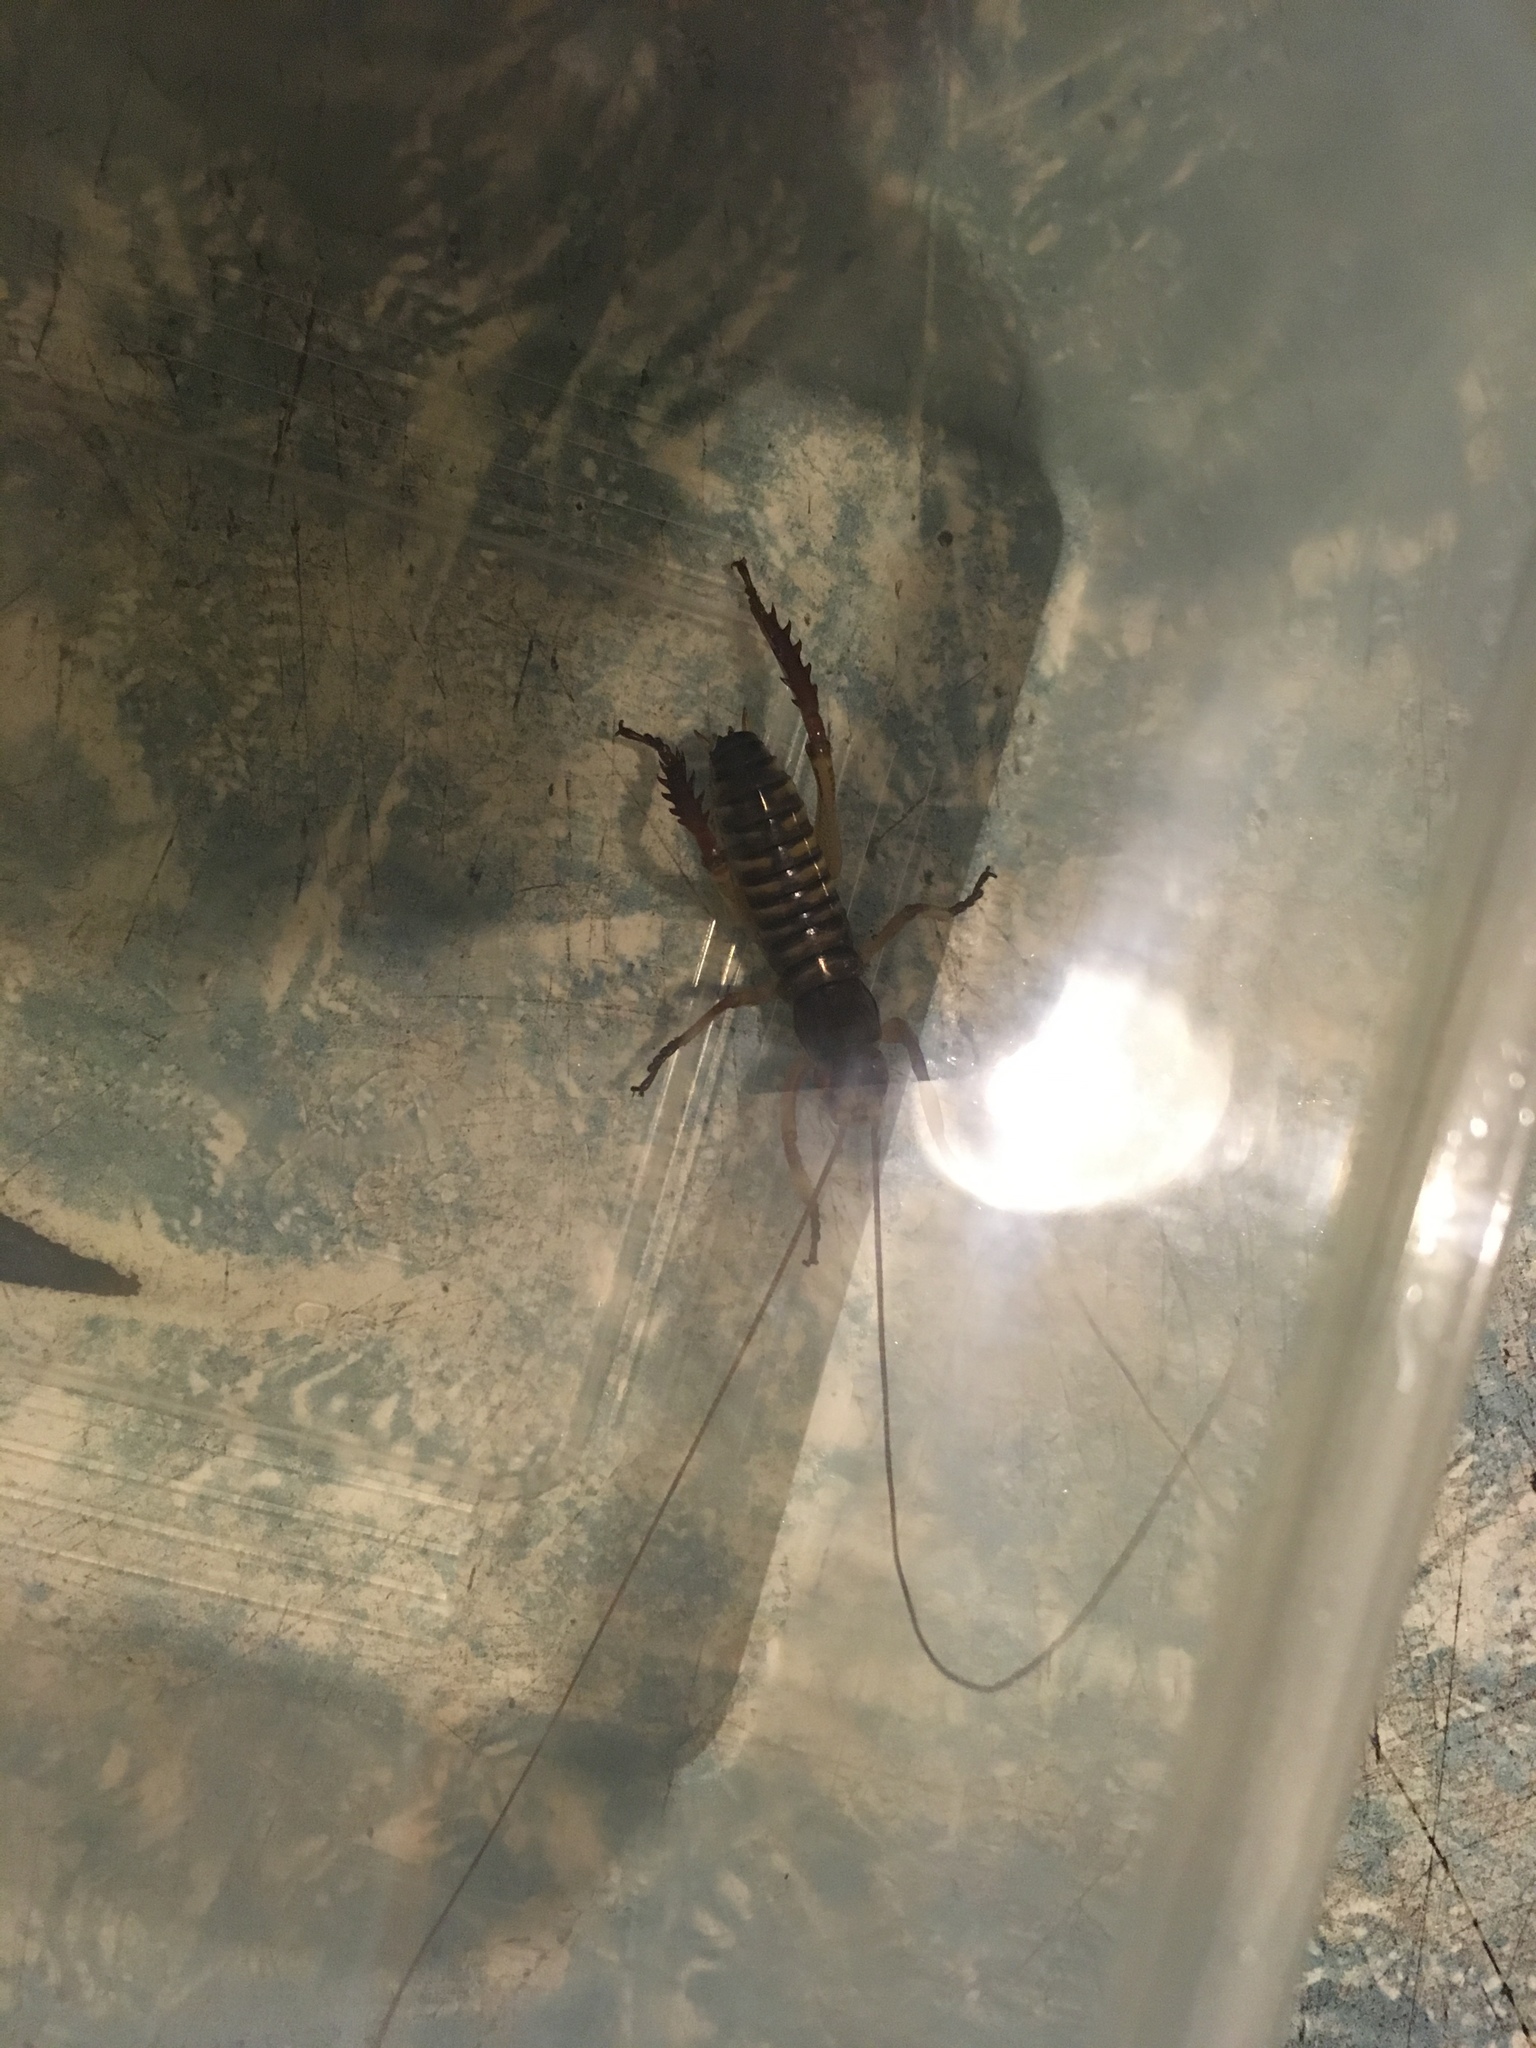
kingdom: Animalia
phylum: Arthropoda
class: Insecta
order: Orthoptera
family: Anostostomatidae
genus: Hemideina
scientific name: Hemideina crassidens
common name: Wellington tree weta
